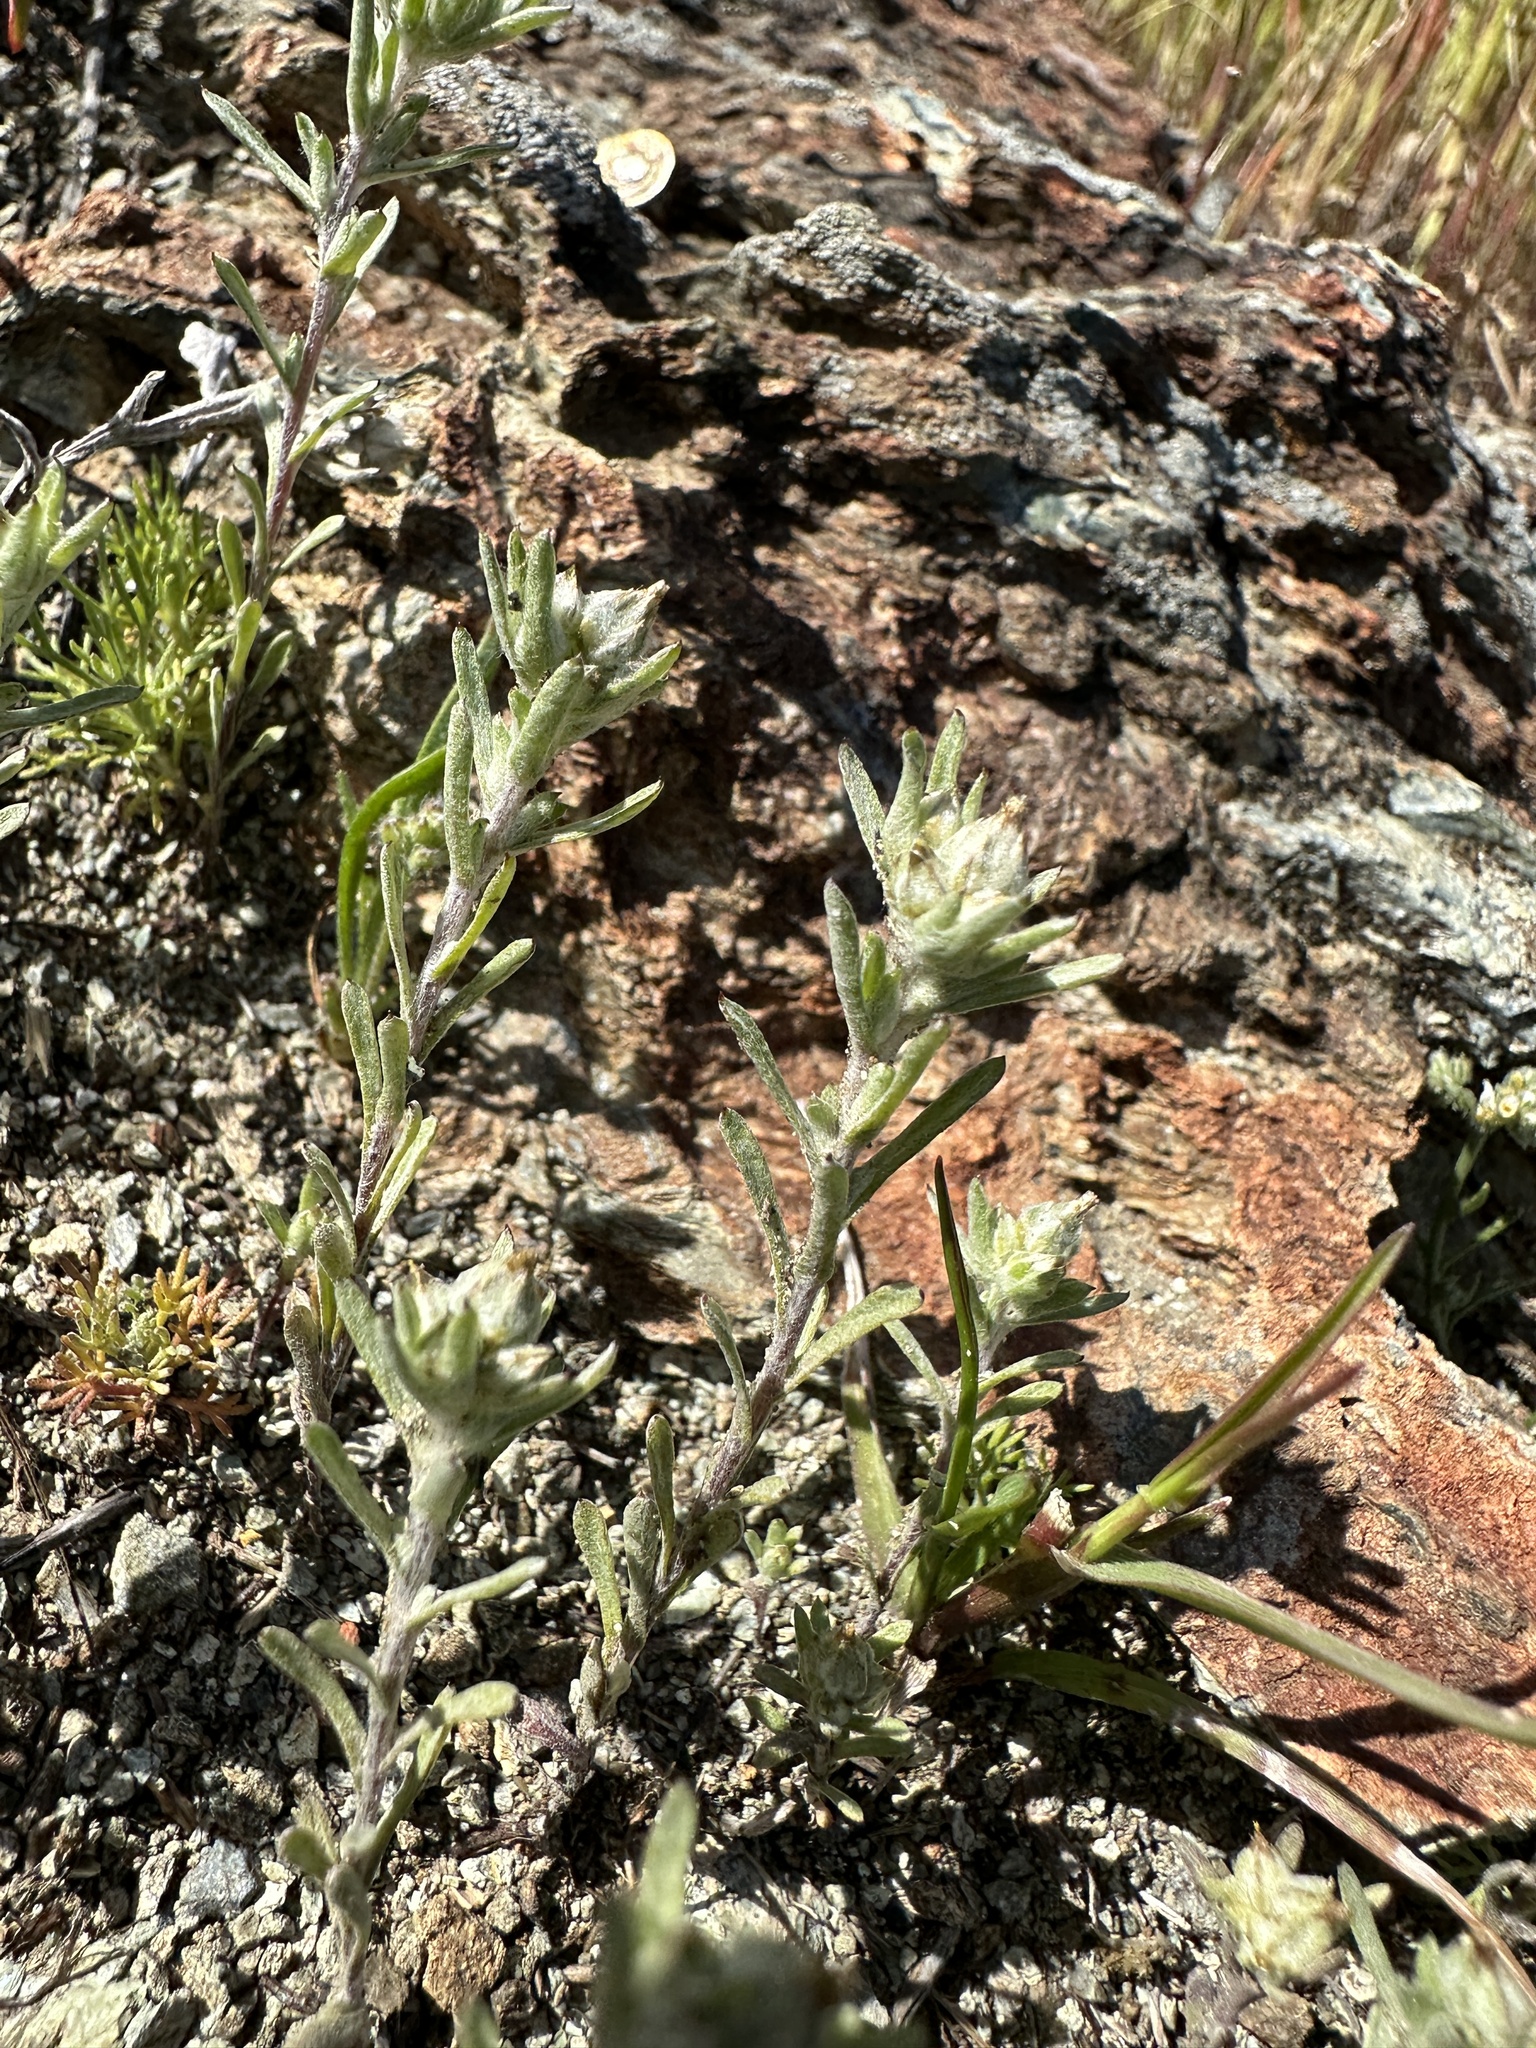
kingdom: Plantae
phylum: Tracheophyta
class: Magnoliopsida
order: Asterales
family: Asteraceae
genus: Logfia
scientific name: Logfia californica
